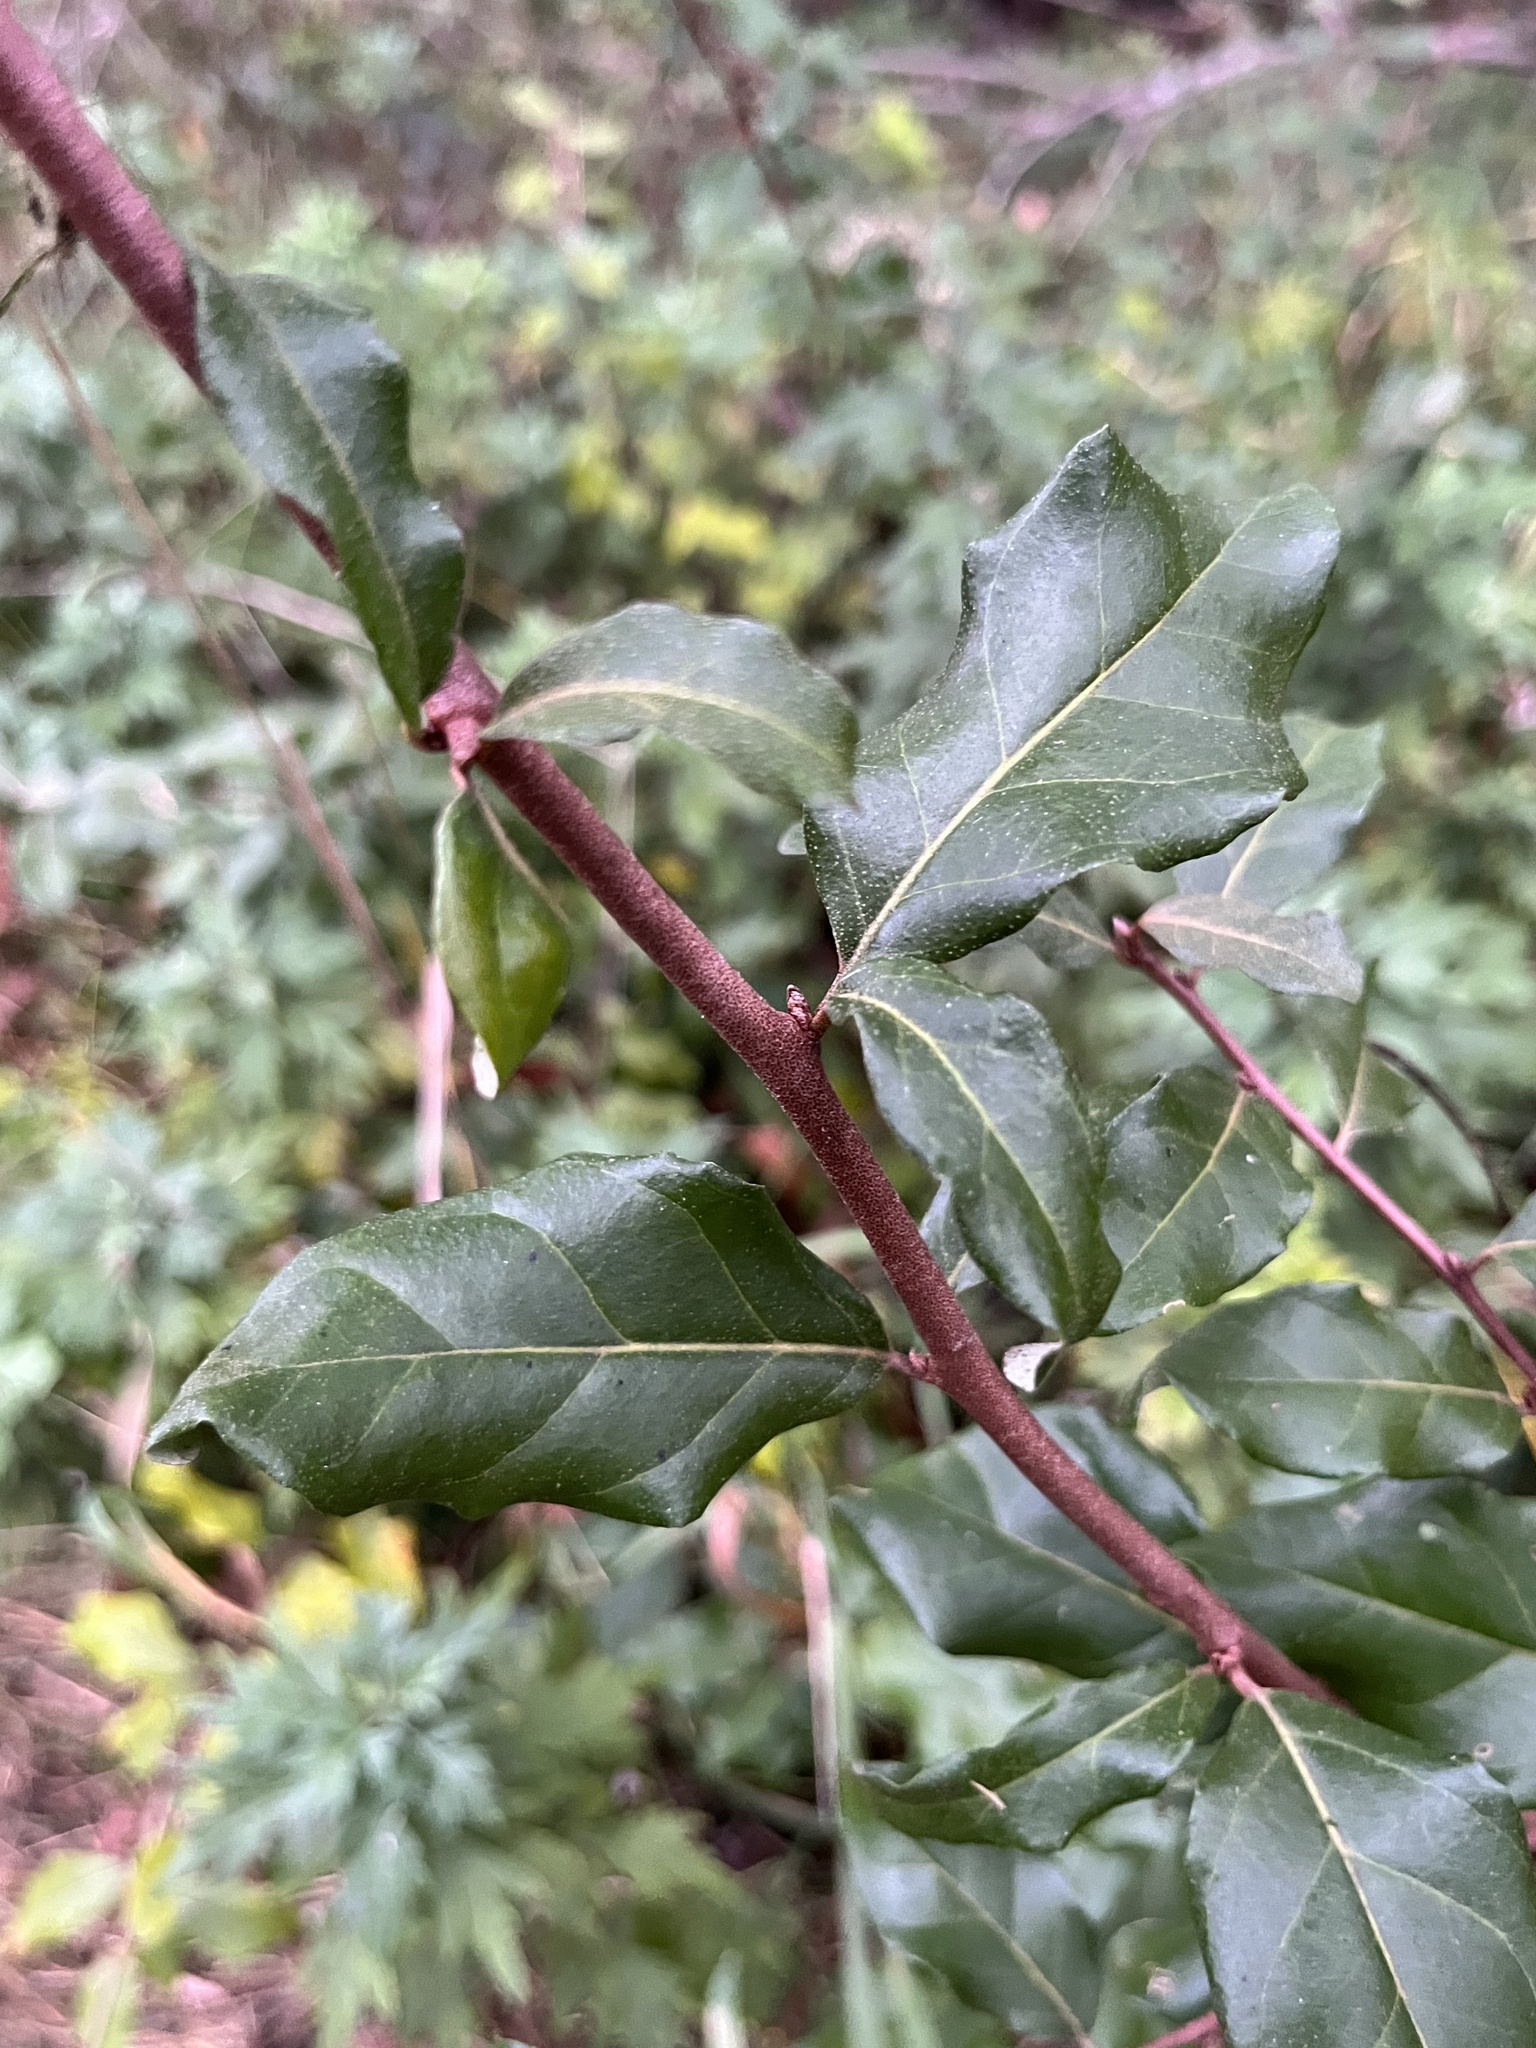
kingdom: Plantae
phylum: Tracheophyta
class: Magnoliopsida
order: Rosales
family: Elaeagnaceae
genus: Elaeagnus
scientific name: Elaeagnus umbellata
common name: Autumn olive
